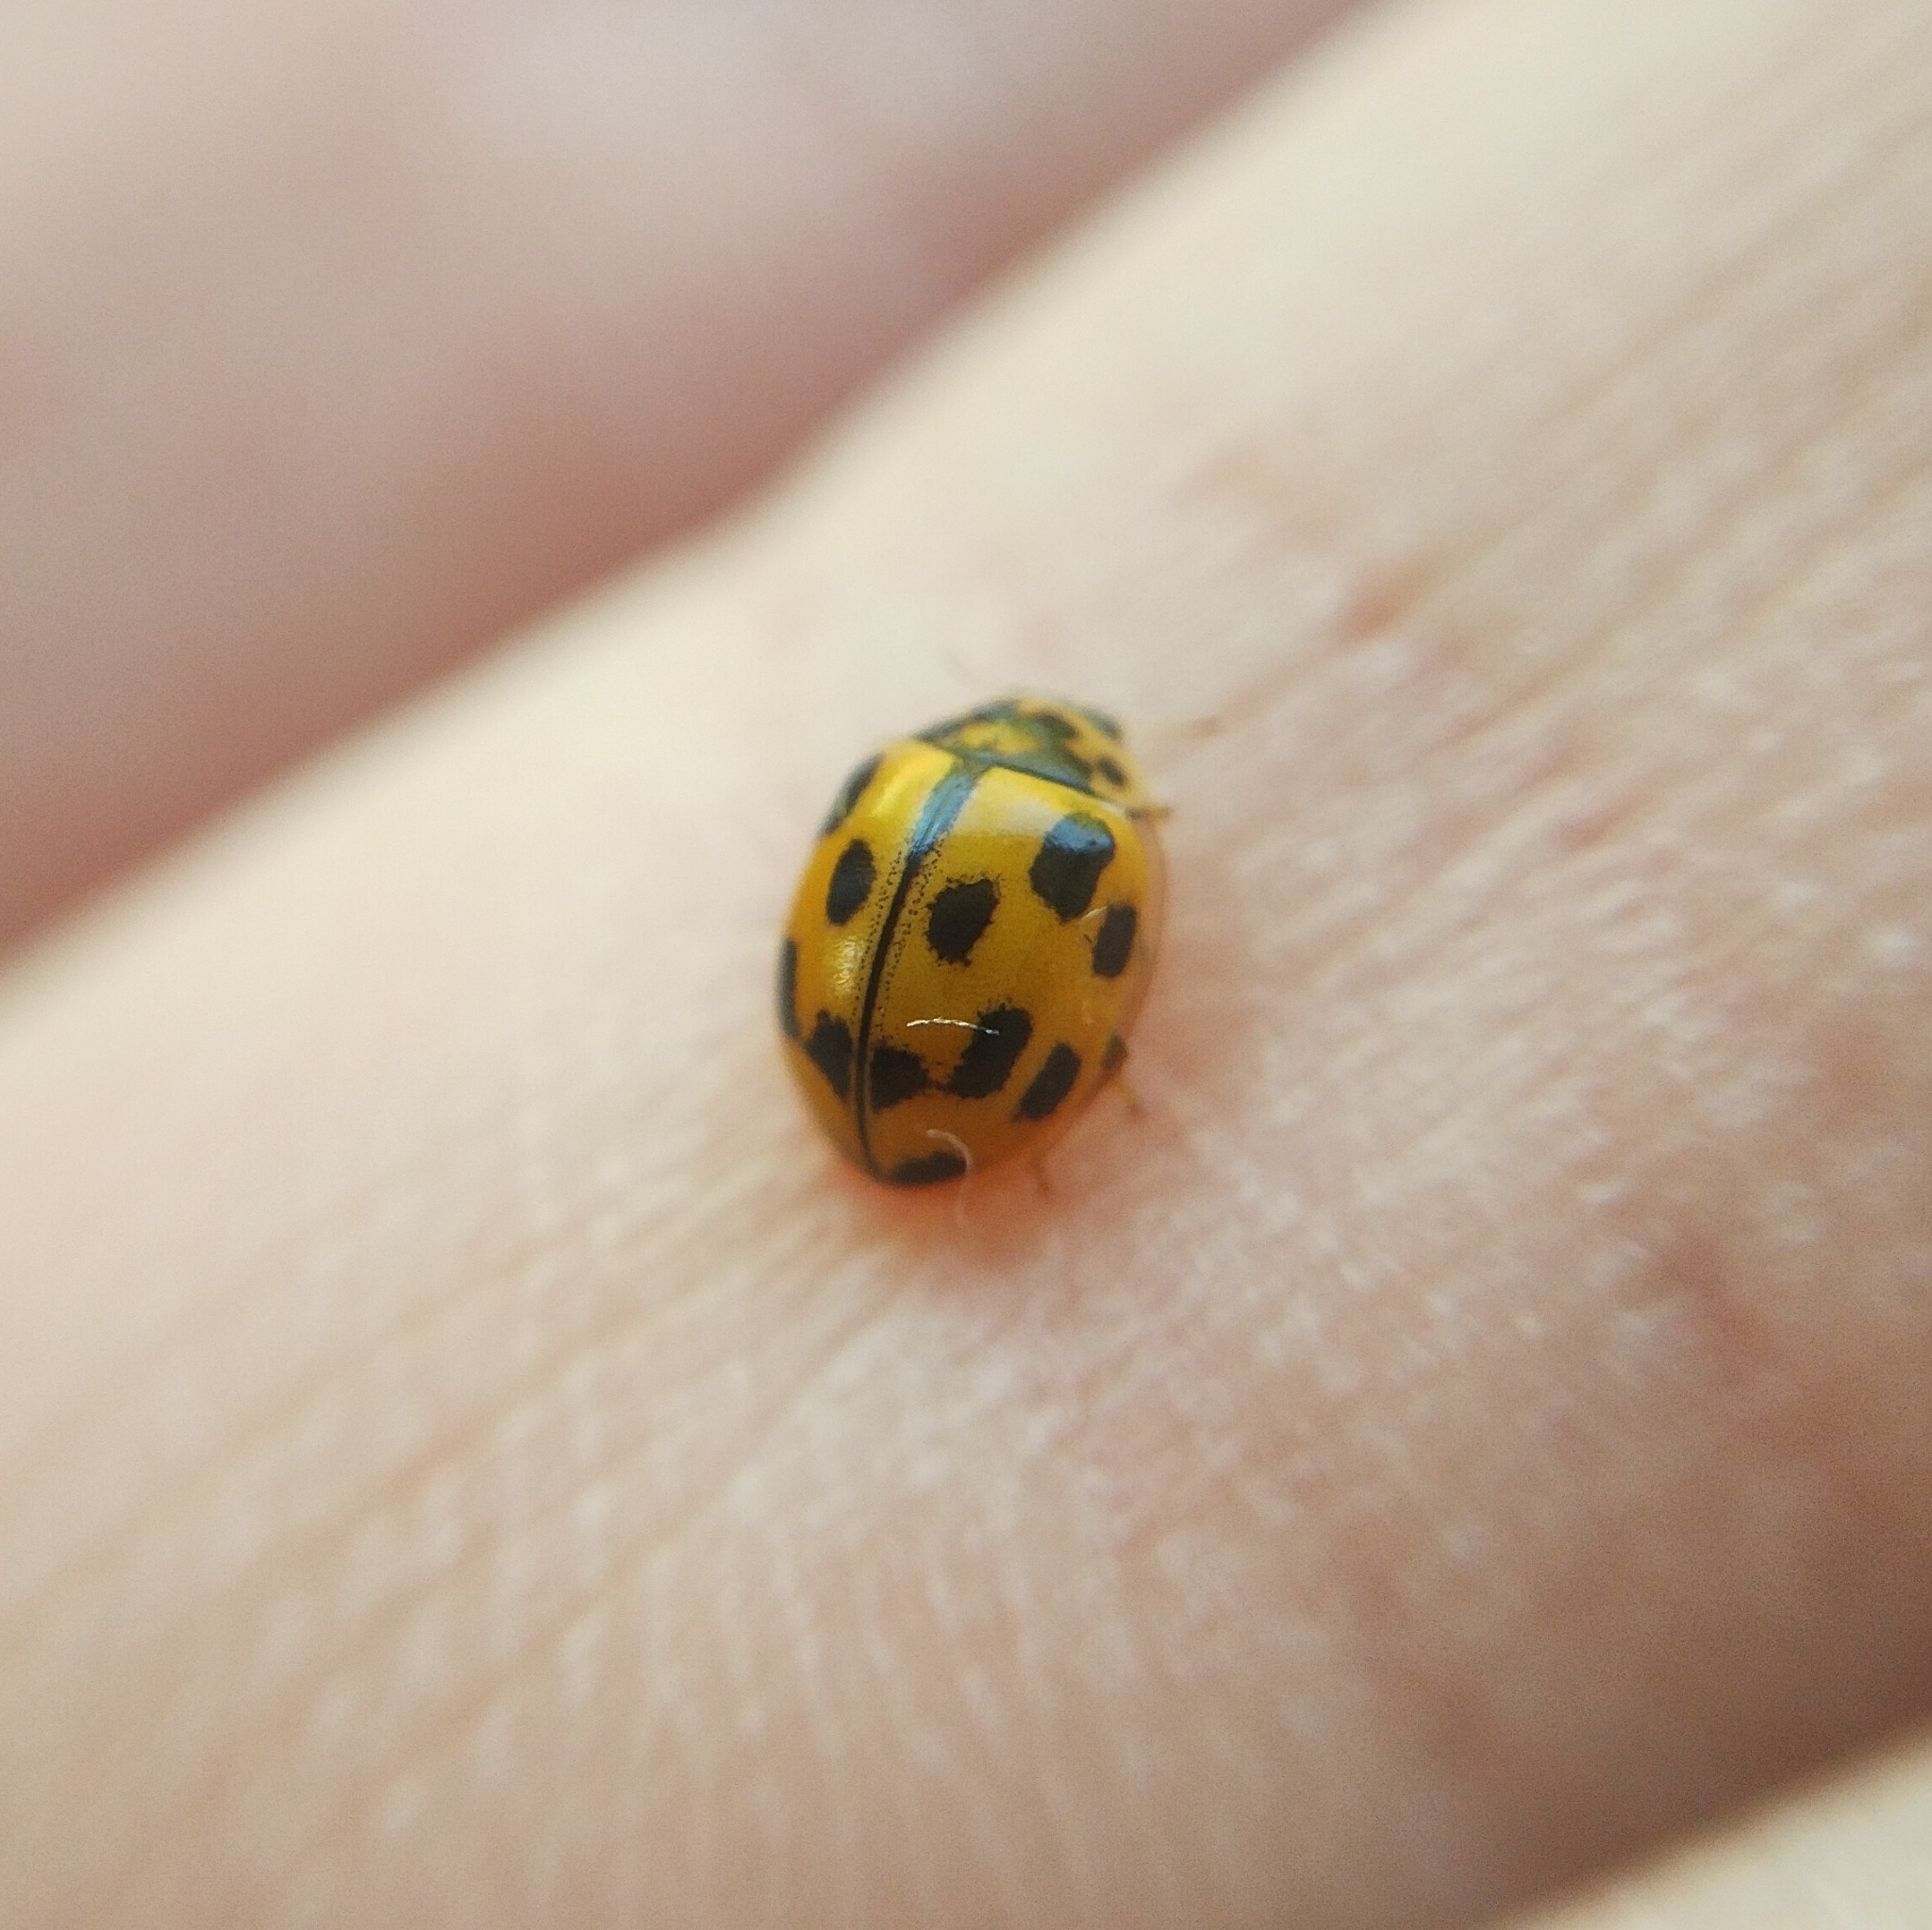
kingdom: Animalia
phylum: Arthropoda
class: Insecta
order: Coleoptera
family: Coccinellidae
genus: Propylaea
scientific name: Propylaea quatuordecimpunctata
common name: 14-spotted ladybird beetle
